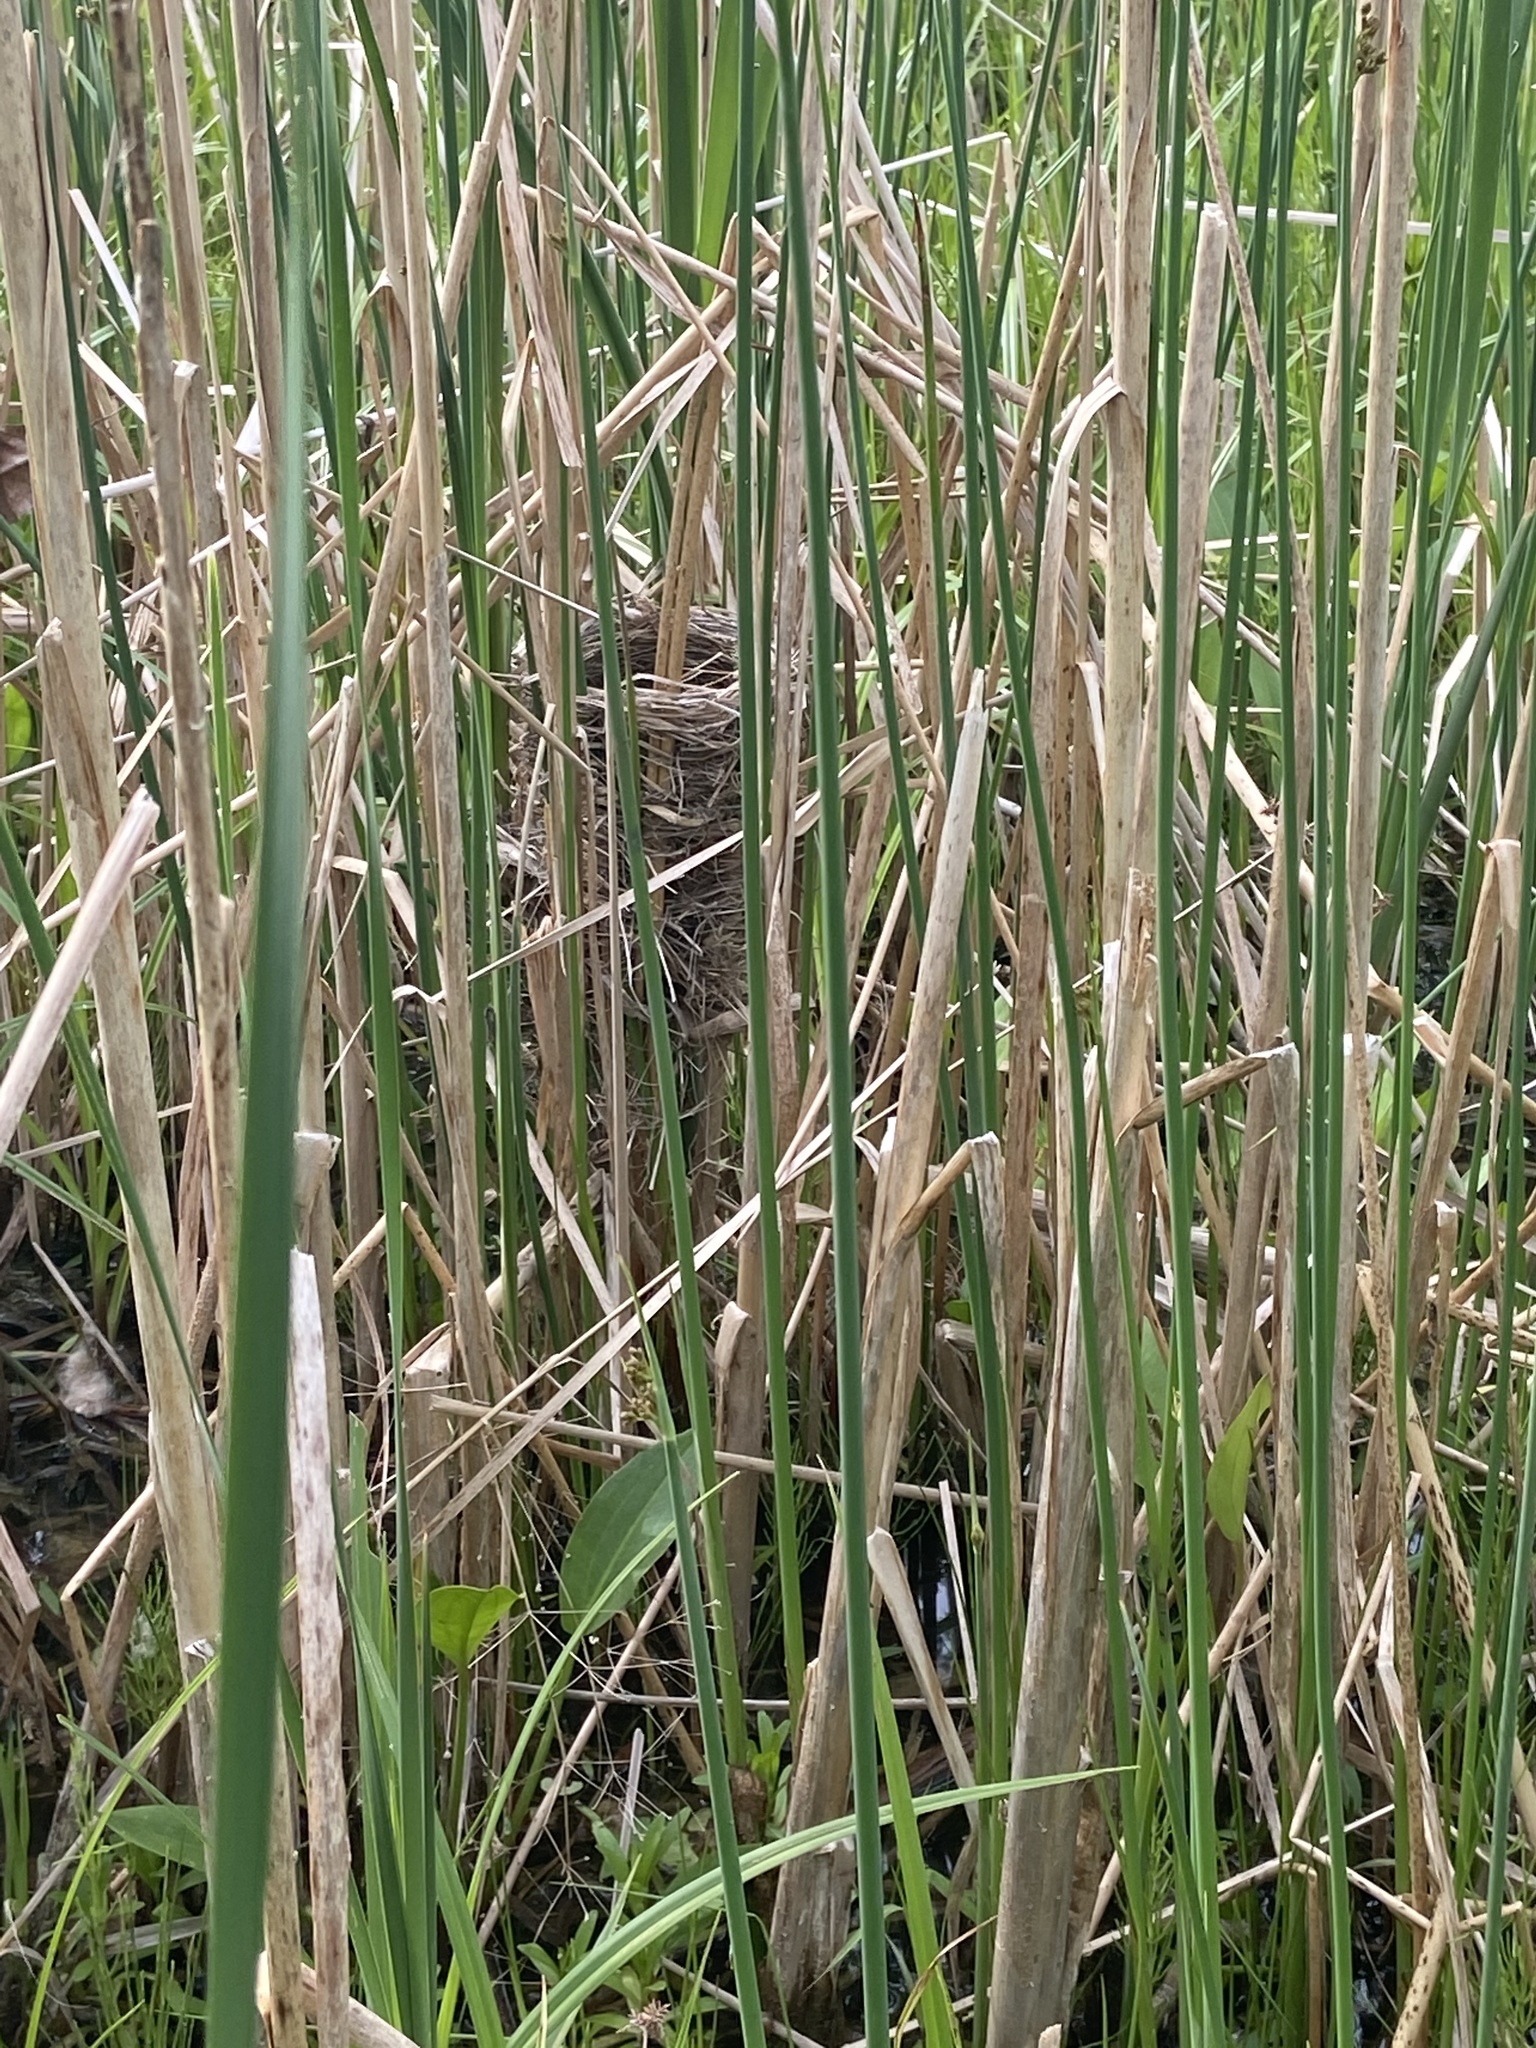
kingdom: Animalia
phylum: Chordata
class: Aves
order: Passeriformes
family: Icteridae
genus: Agelaius
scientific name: Agelaius phoeniceus
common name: Red-winged blackbird
